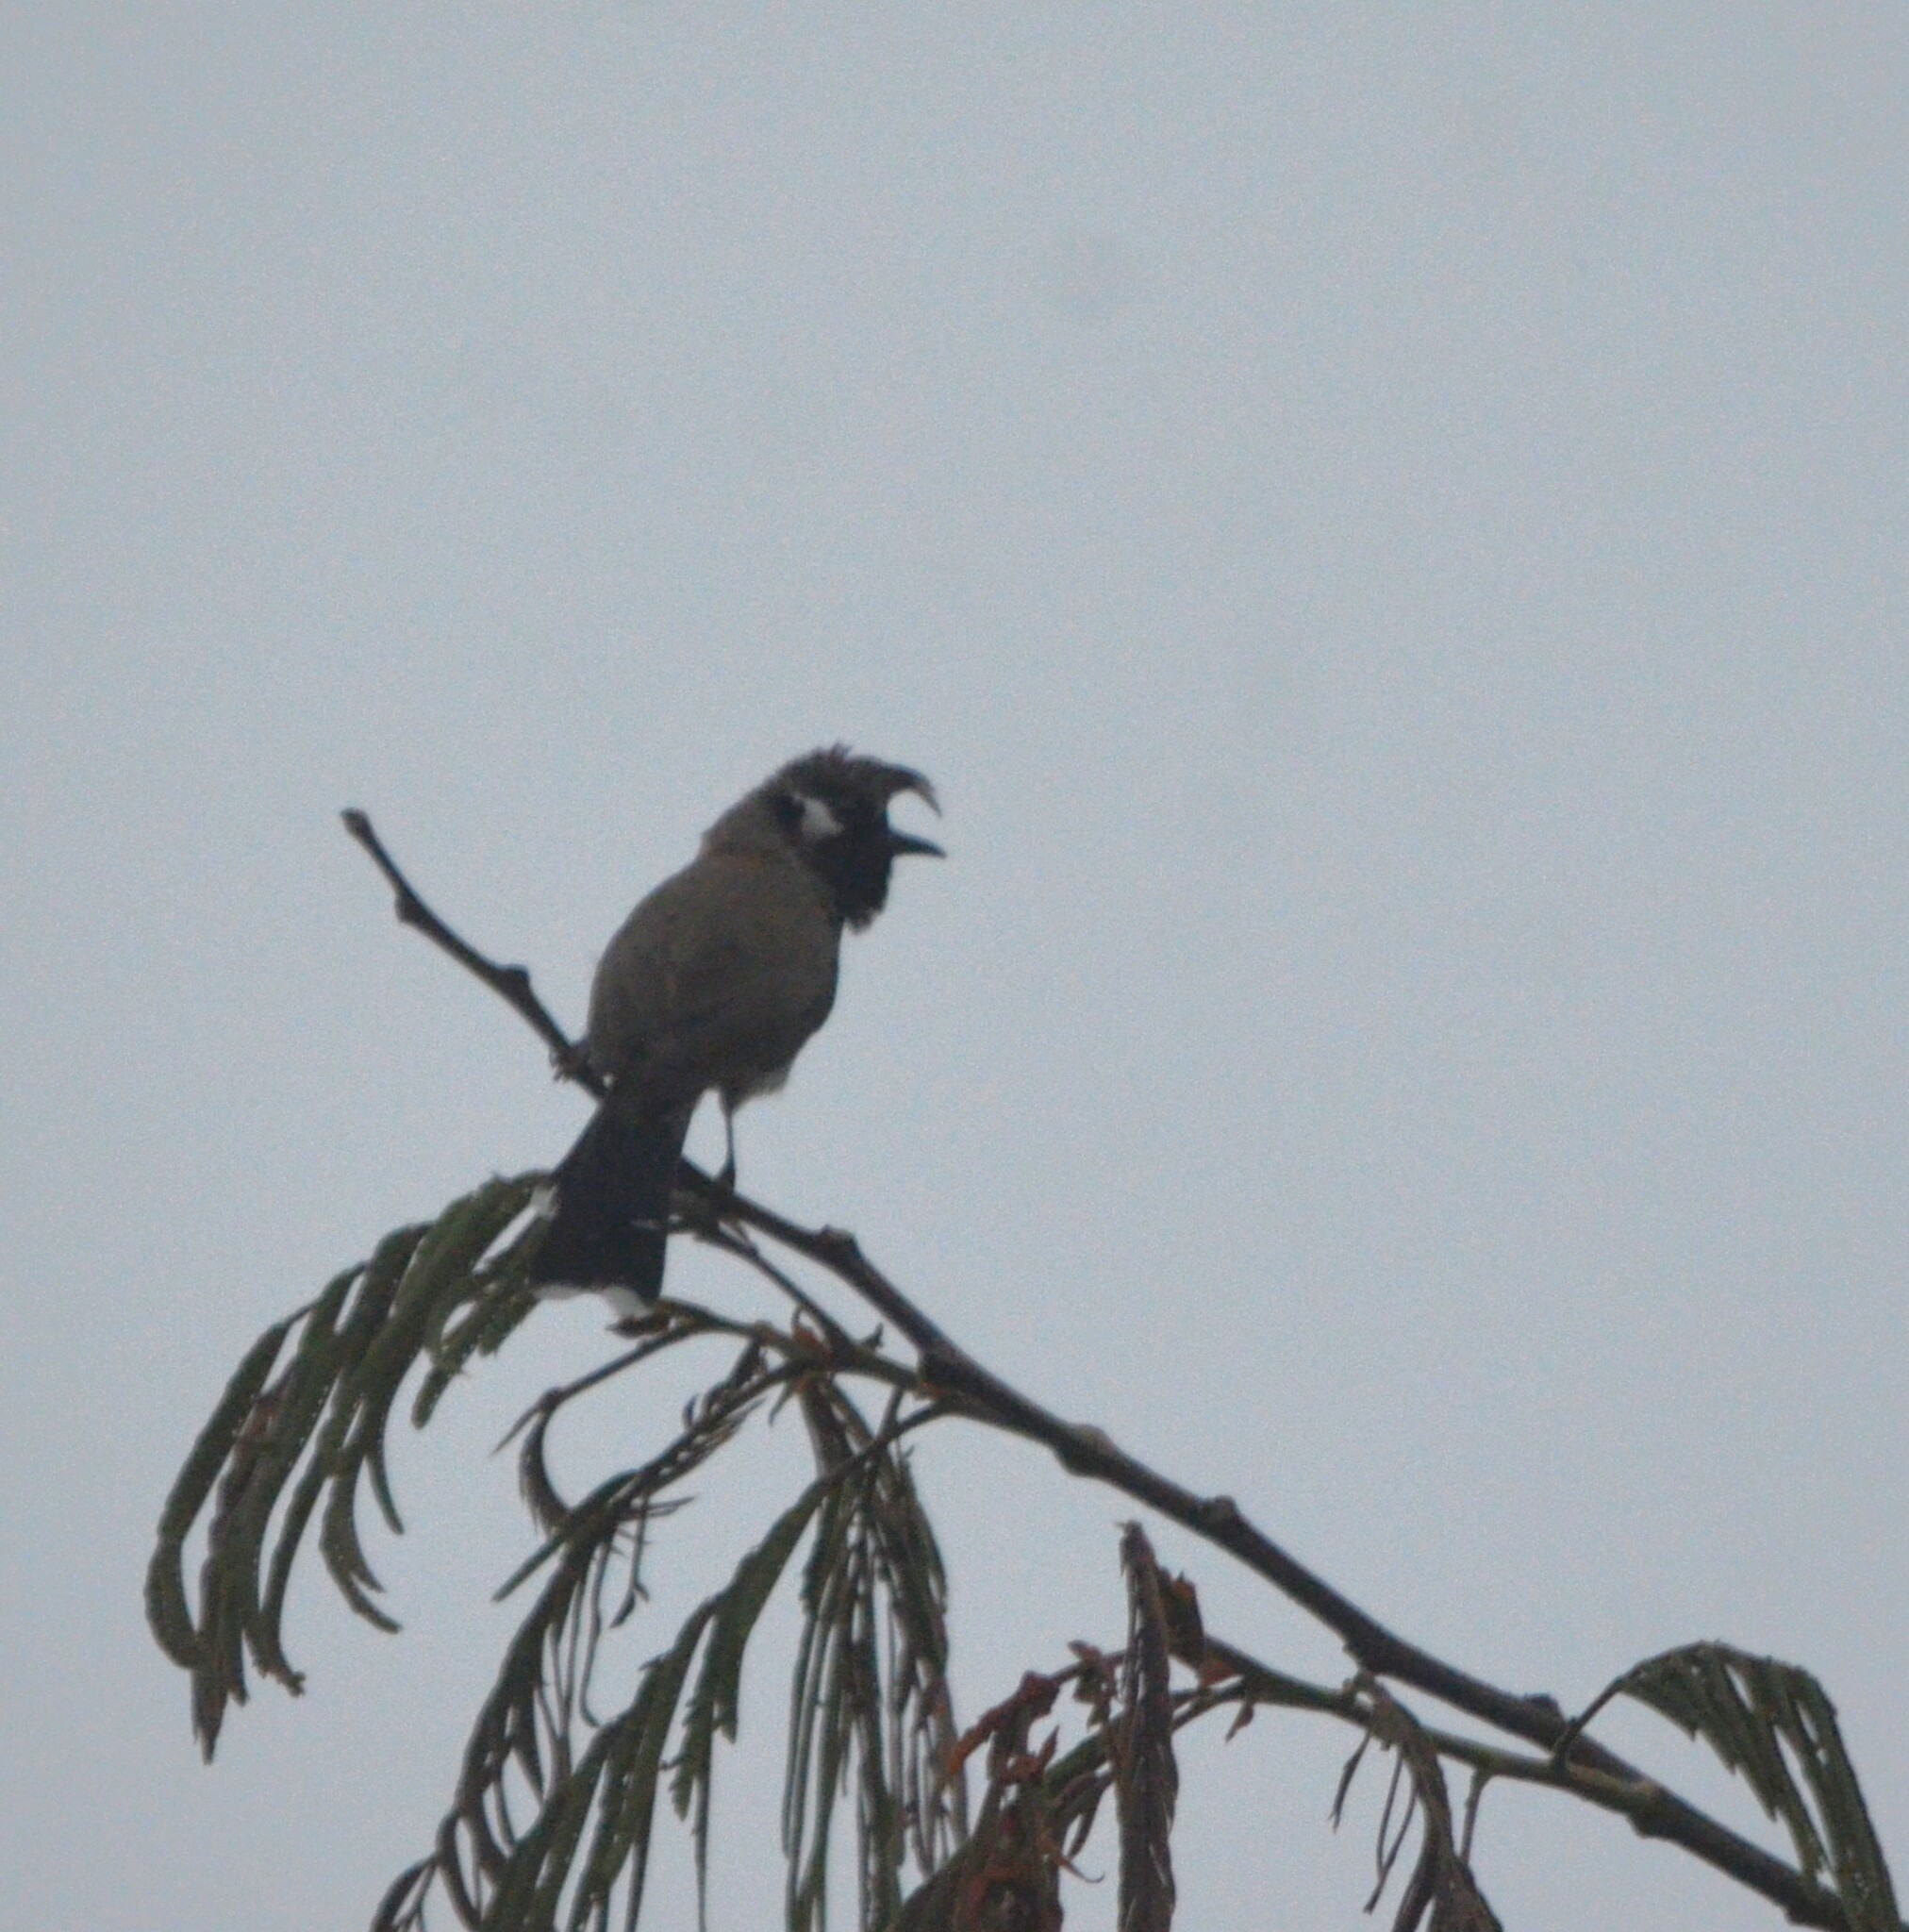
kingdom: Animalia
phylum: Chordata
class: Aves
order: Passeriformes
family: Pycnonotidae
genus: Pycnonotus
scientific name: Pycnonotus leucogenys
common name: Himalayan bulbul
